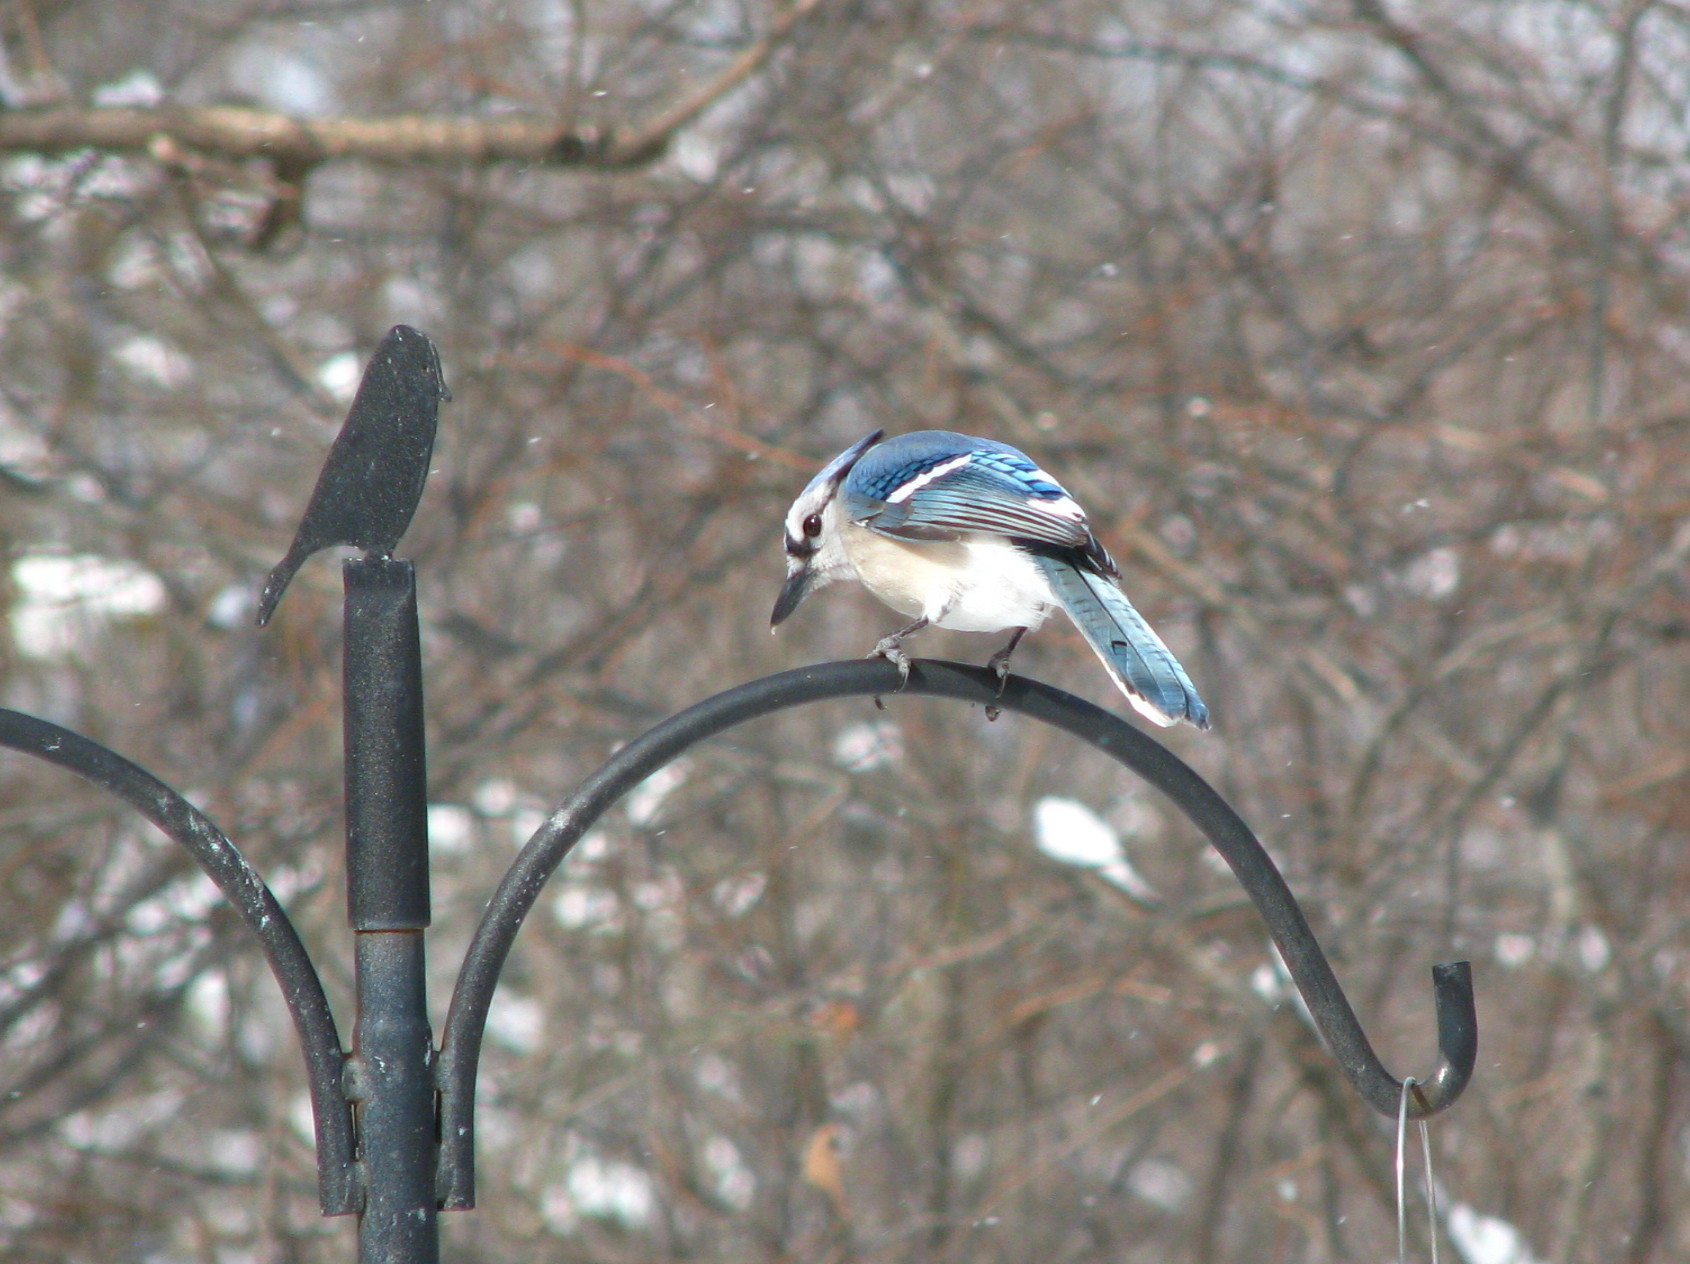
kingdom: Animalia
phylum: Chordata
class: Aves
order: Passeriformes
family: Corvidae
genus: Cyanocitta
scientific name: Cyanocitta cristata
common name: Blue jay
